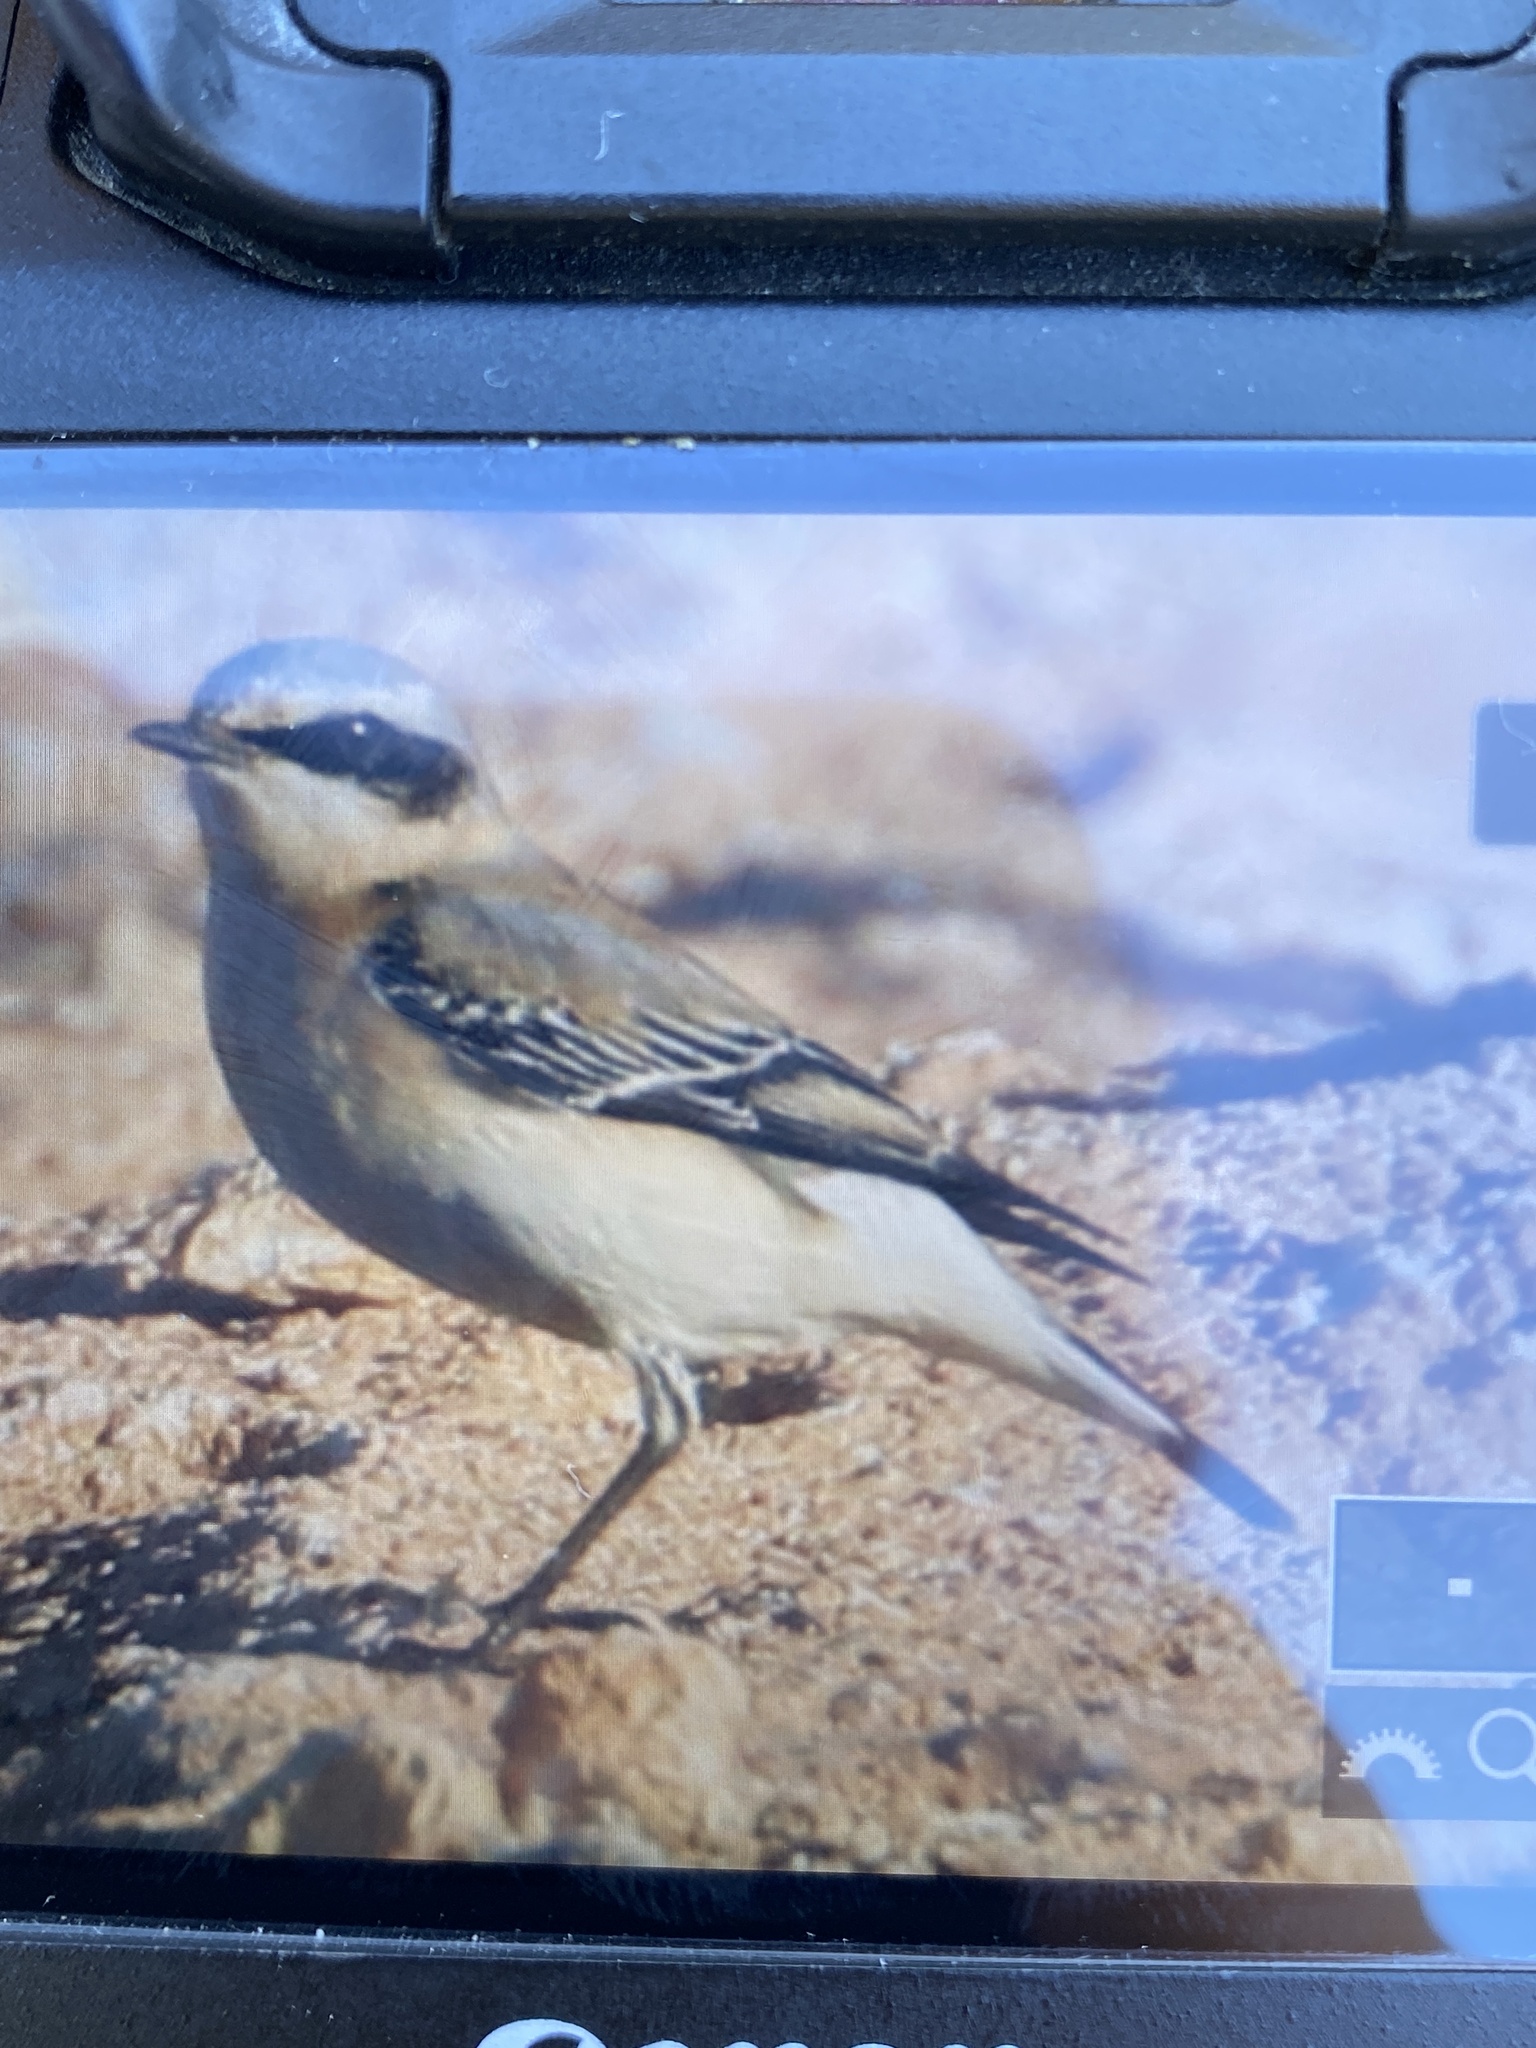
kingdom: Animalia
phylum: Chordata
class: Aves
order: Passeriformes
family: Muscicapidae
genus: Oenanthe
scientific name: Oenanthe oenanthe
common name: Northern wheatear
